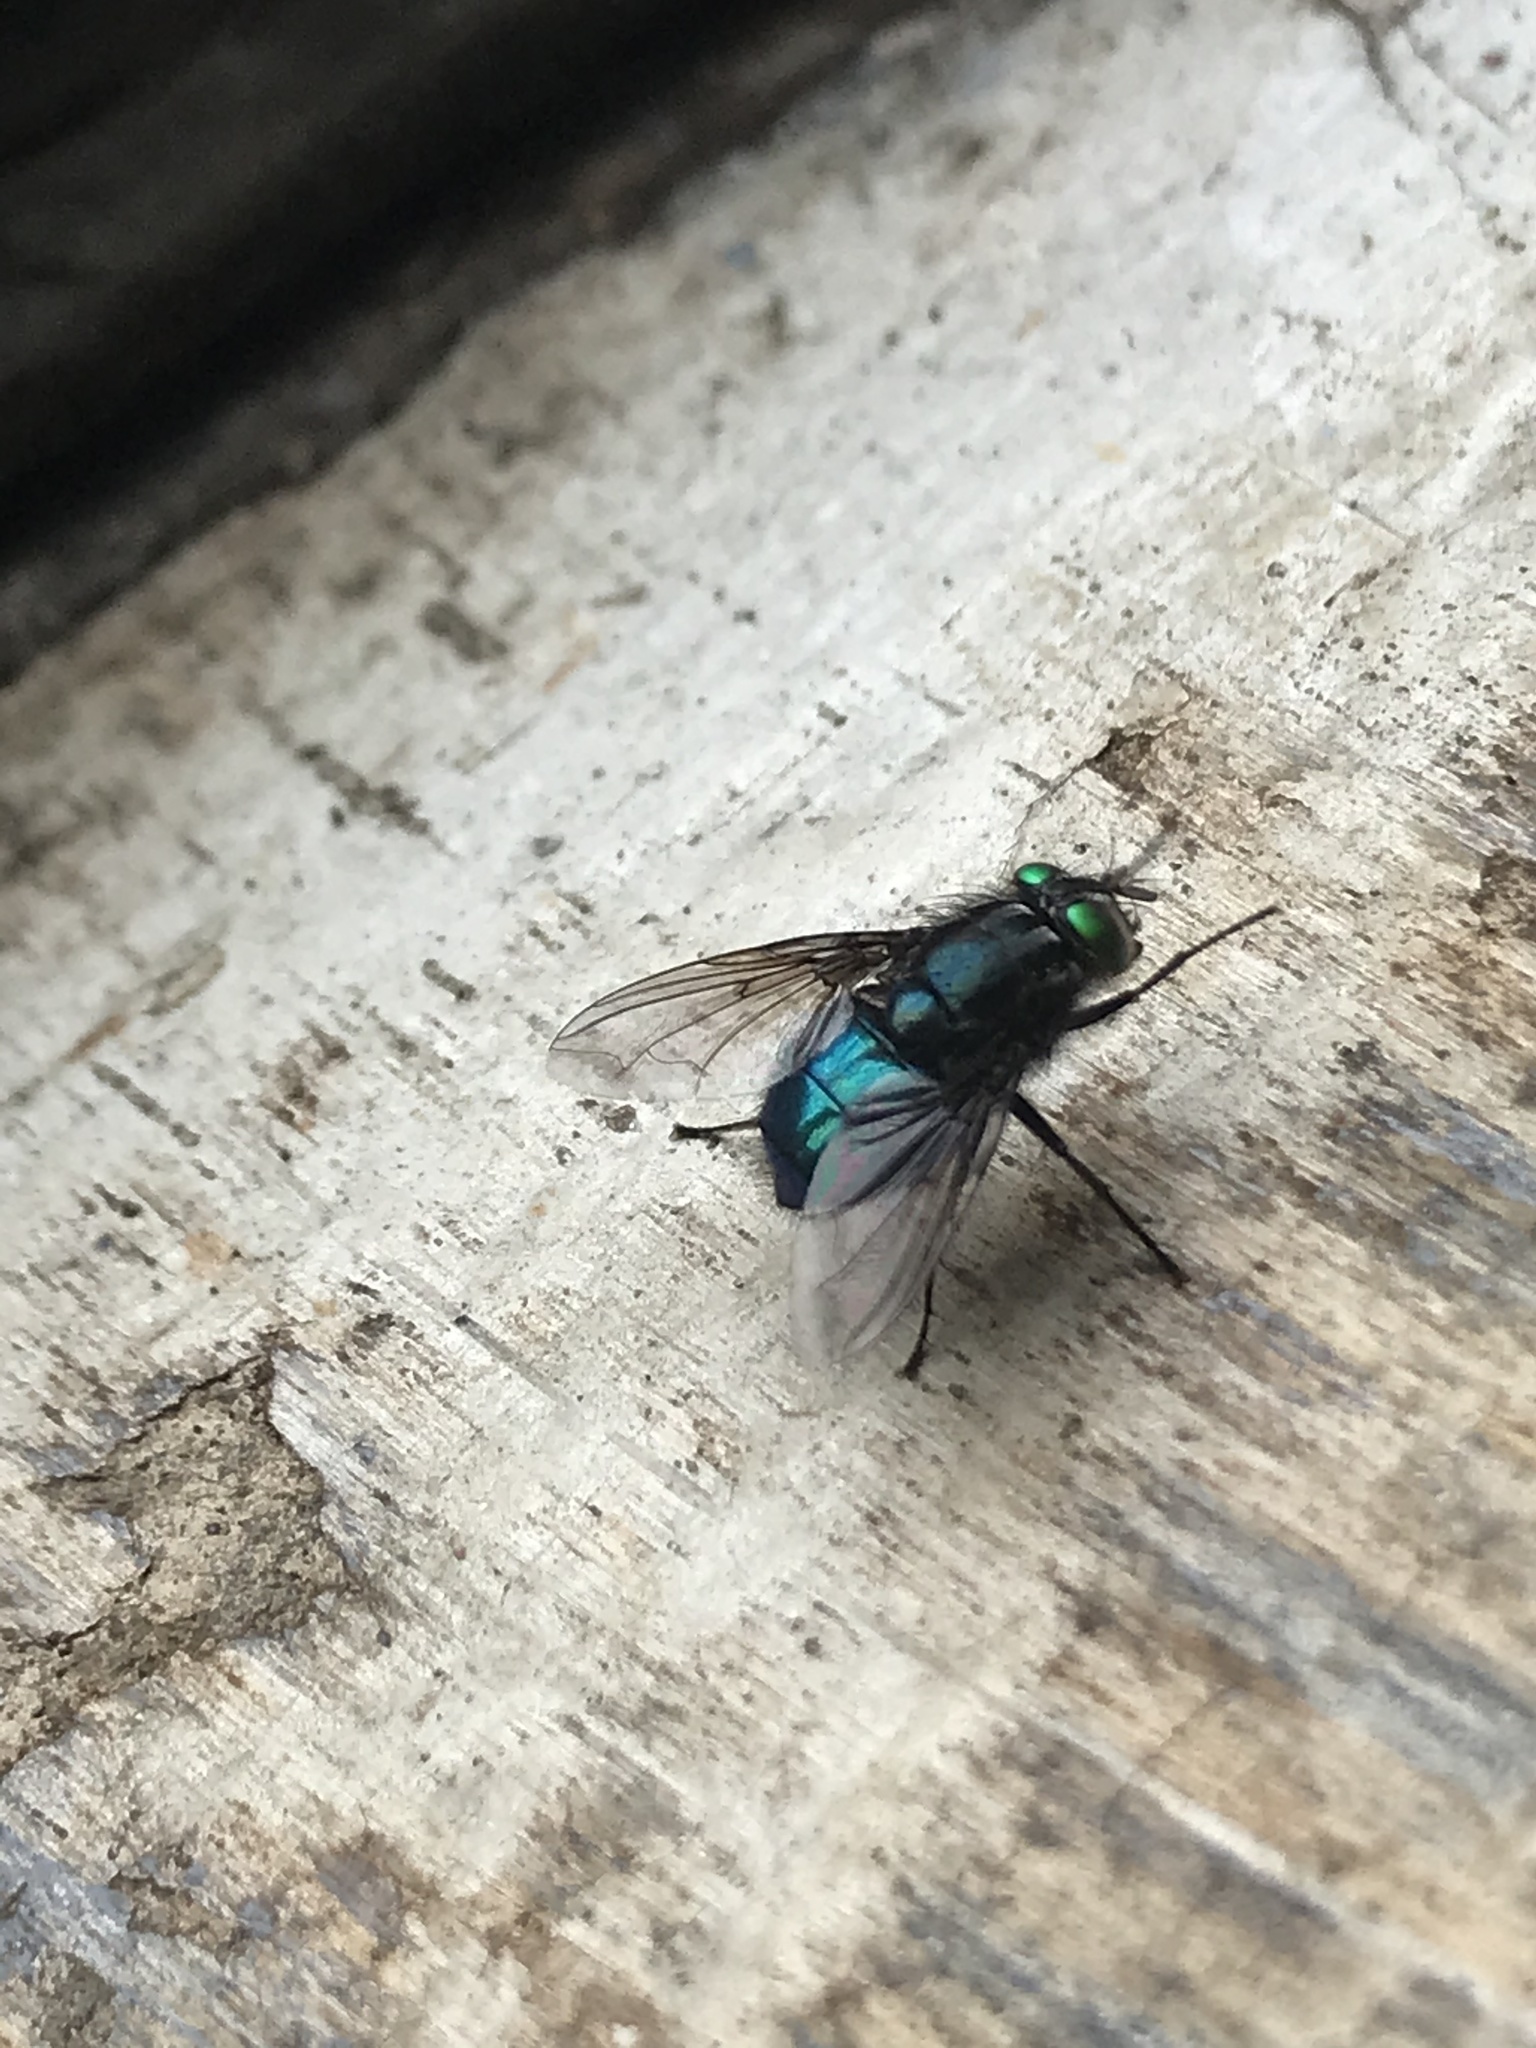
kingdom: Animalia
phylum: Arthropoda
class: Insecta
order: Diptera
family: Calliphoridae
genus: Sarconesia
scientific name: Sarconesia magellanica
